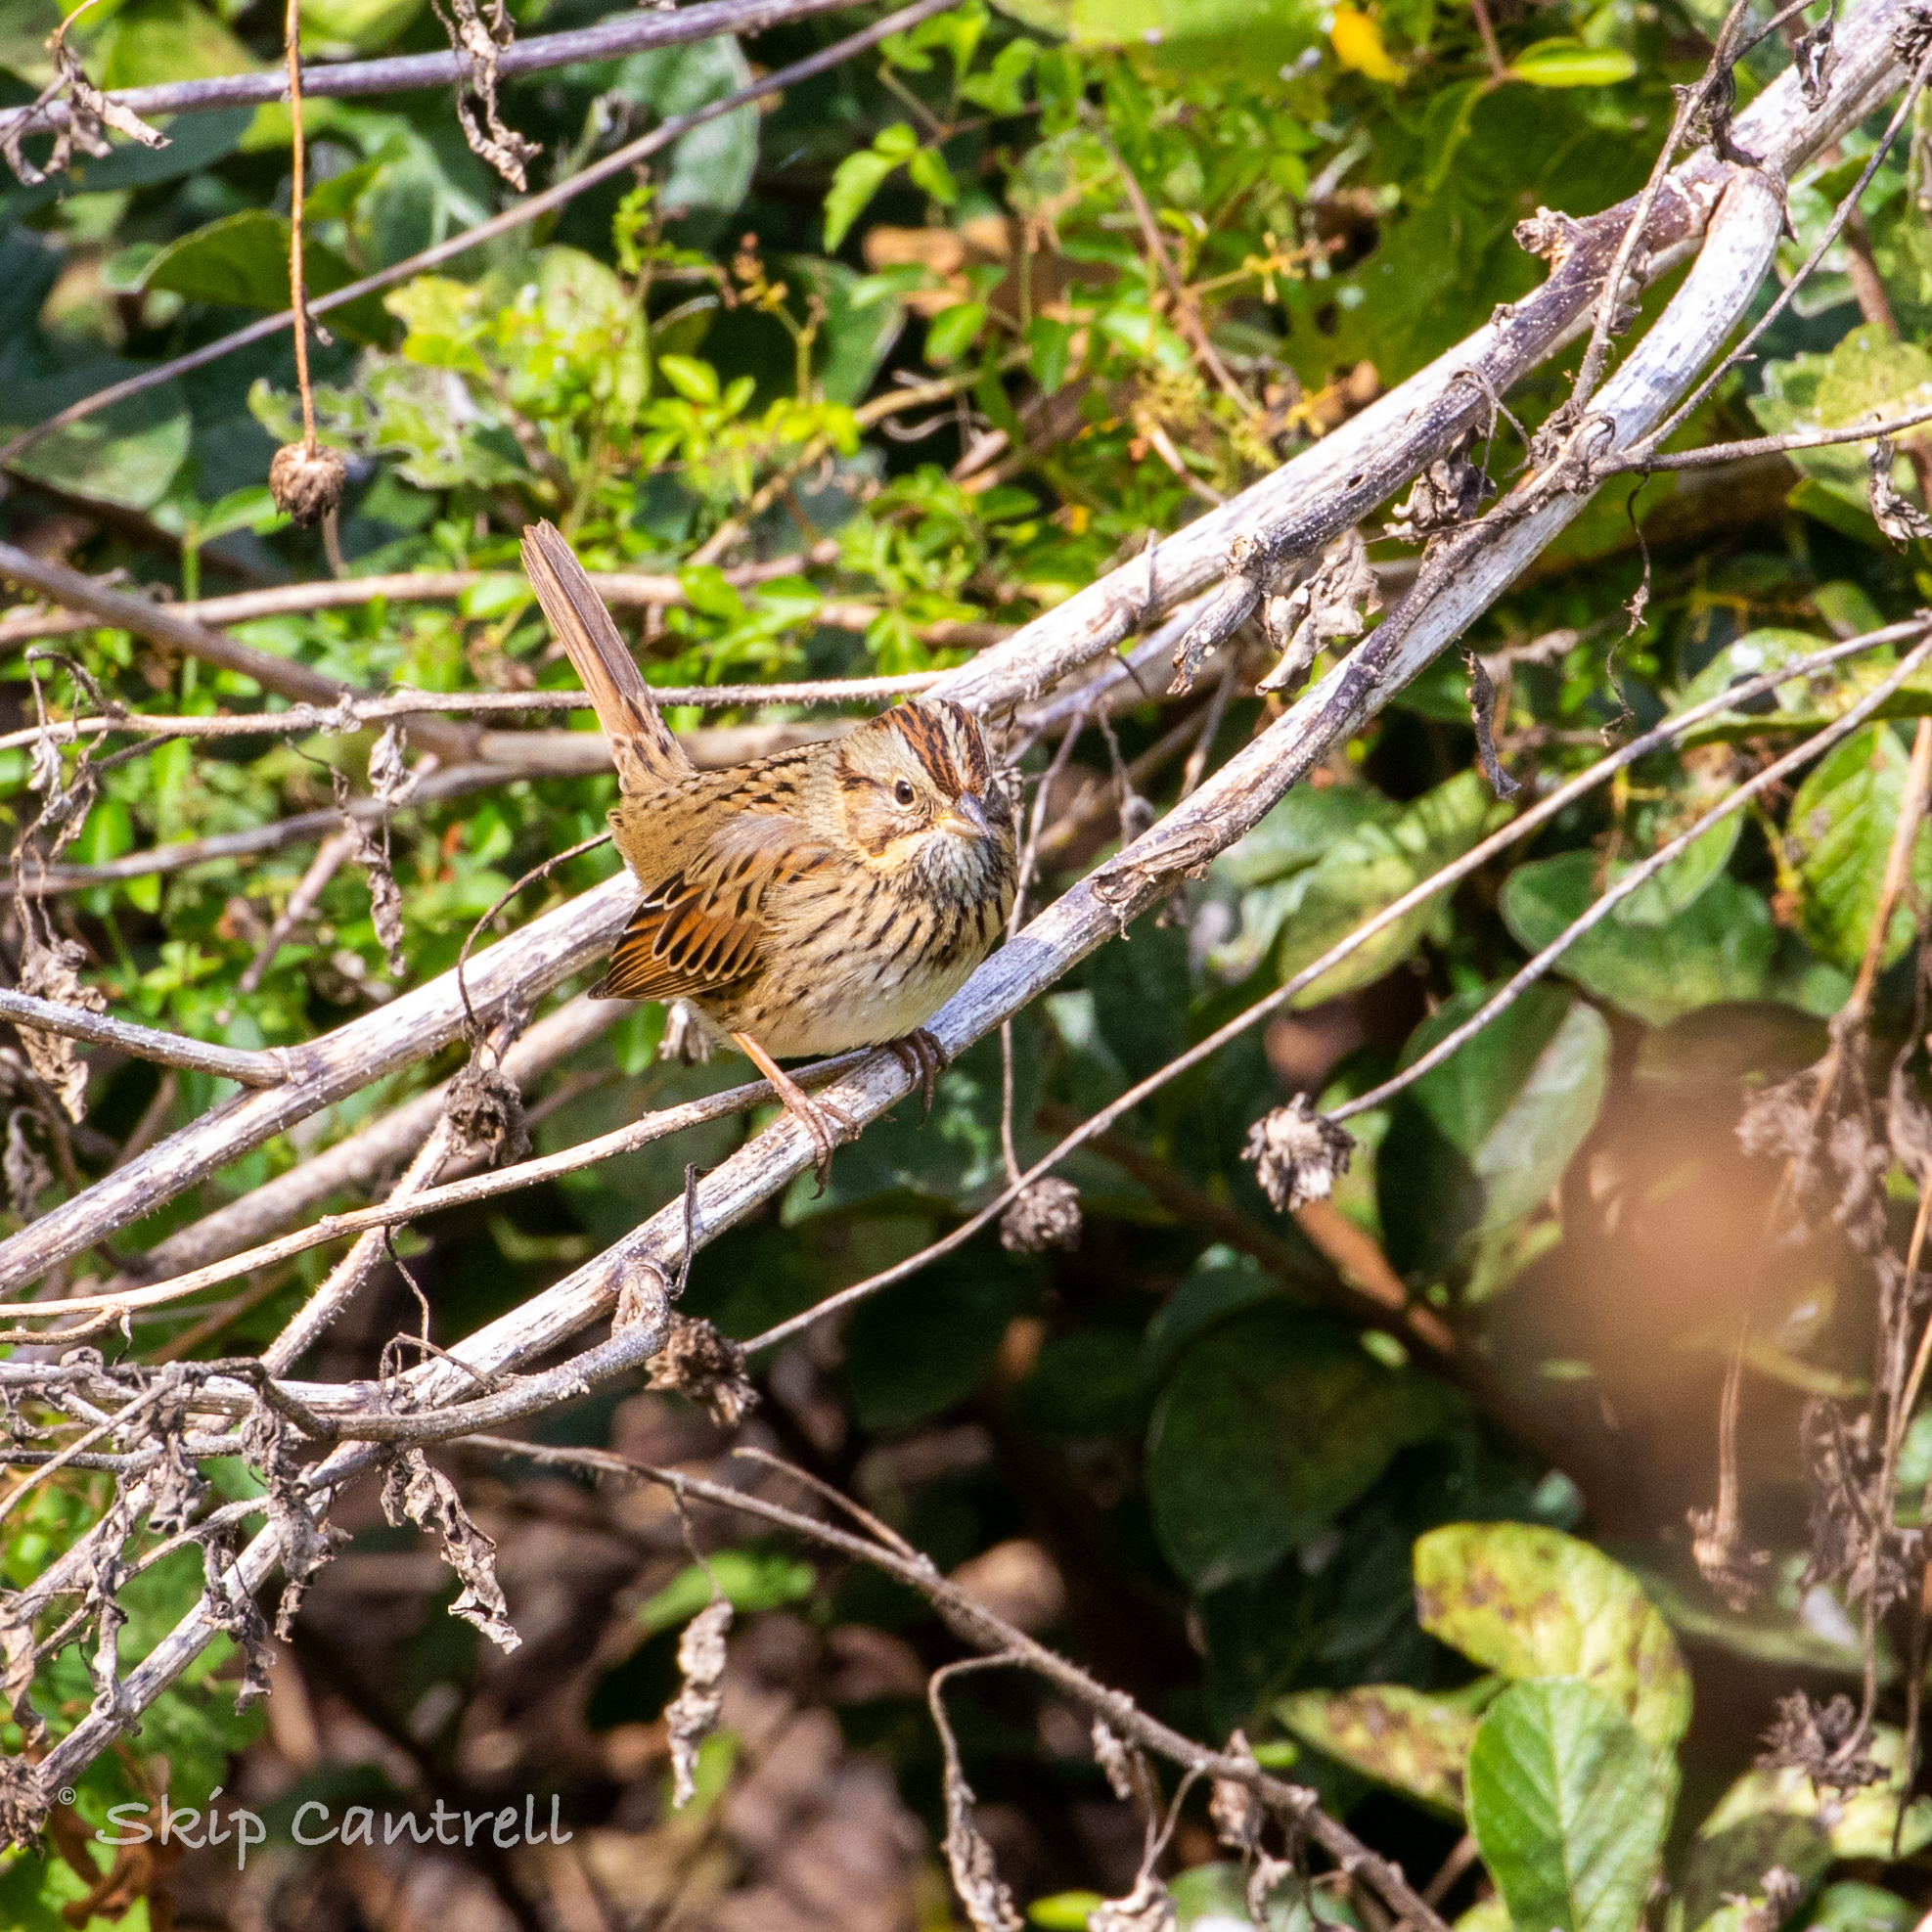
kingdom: Animalia
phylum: Chordata
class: Aves
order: Passeriformes
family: Passerellidae
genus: Melospiza
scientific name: Melospiza lincolnii
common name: Lincoln's sparrow
